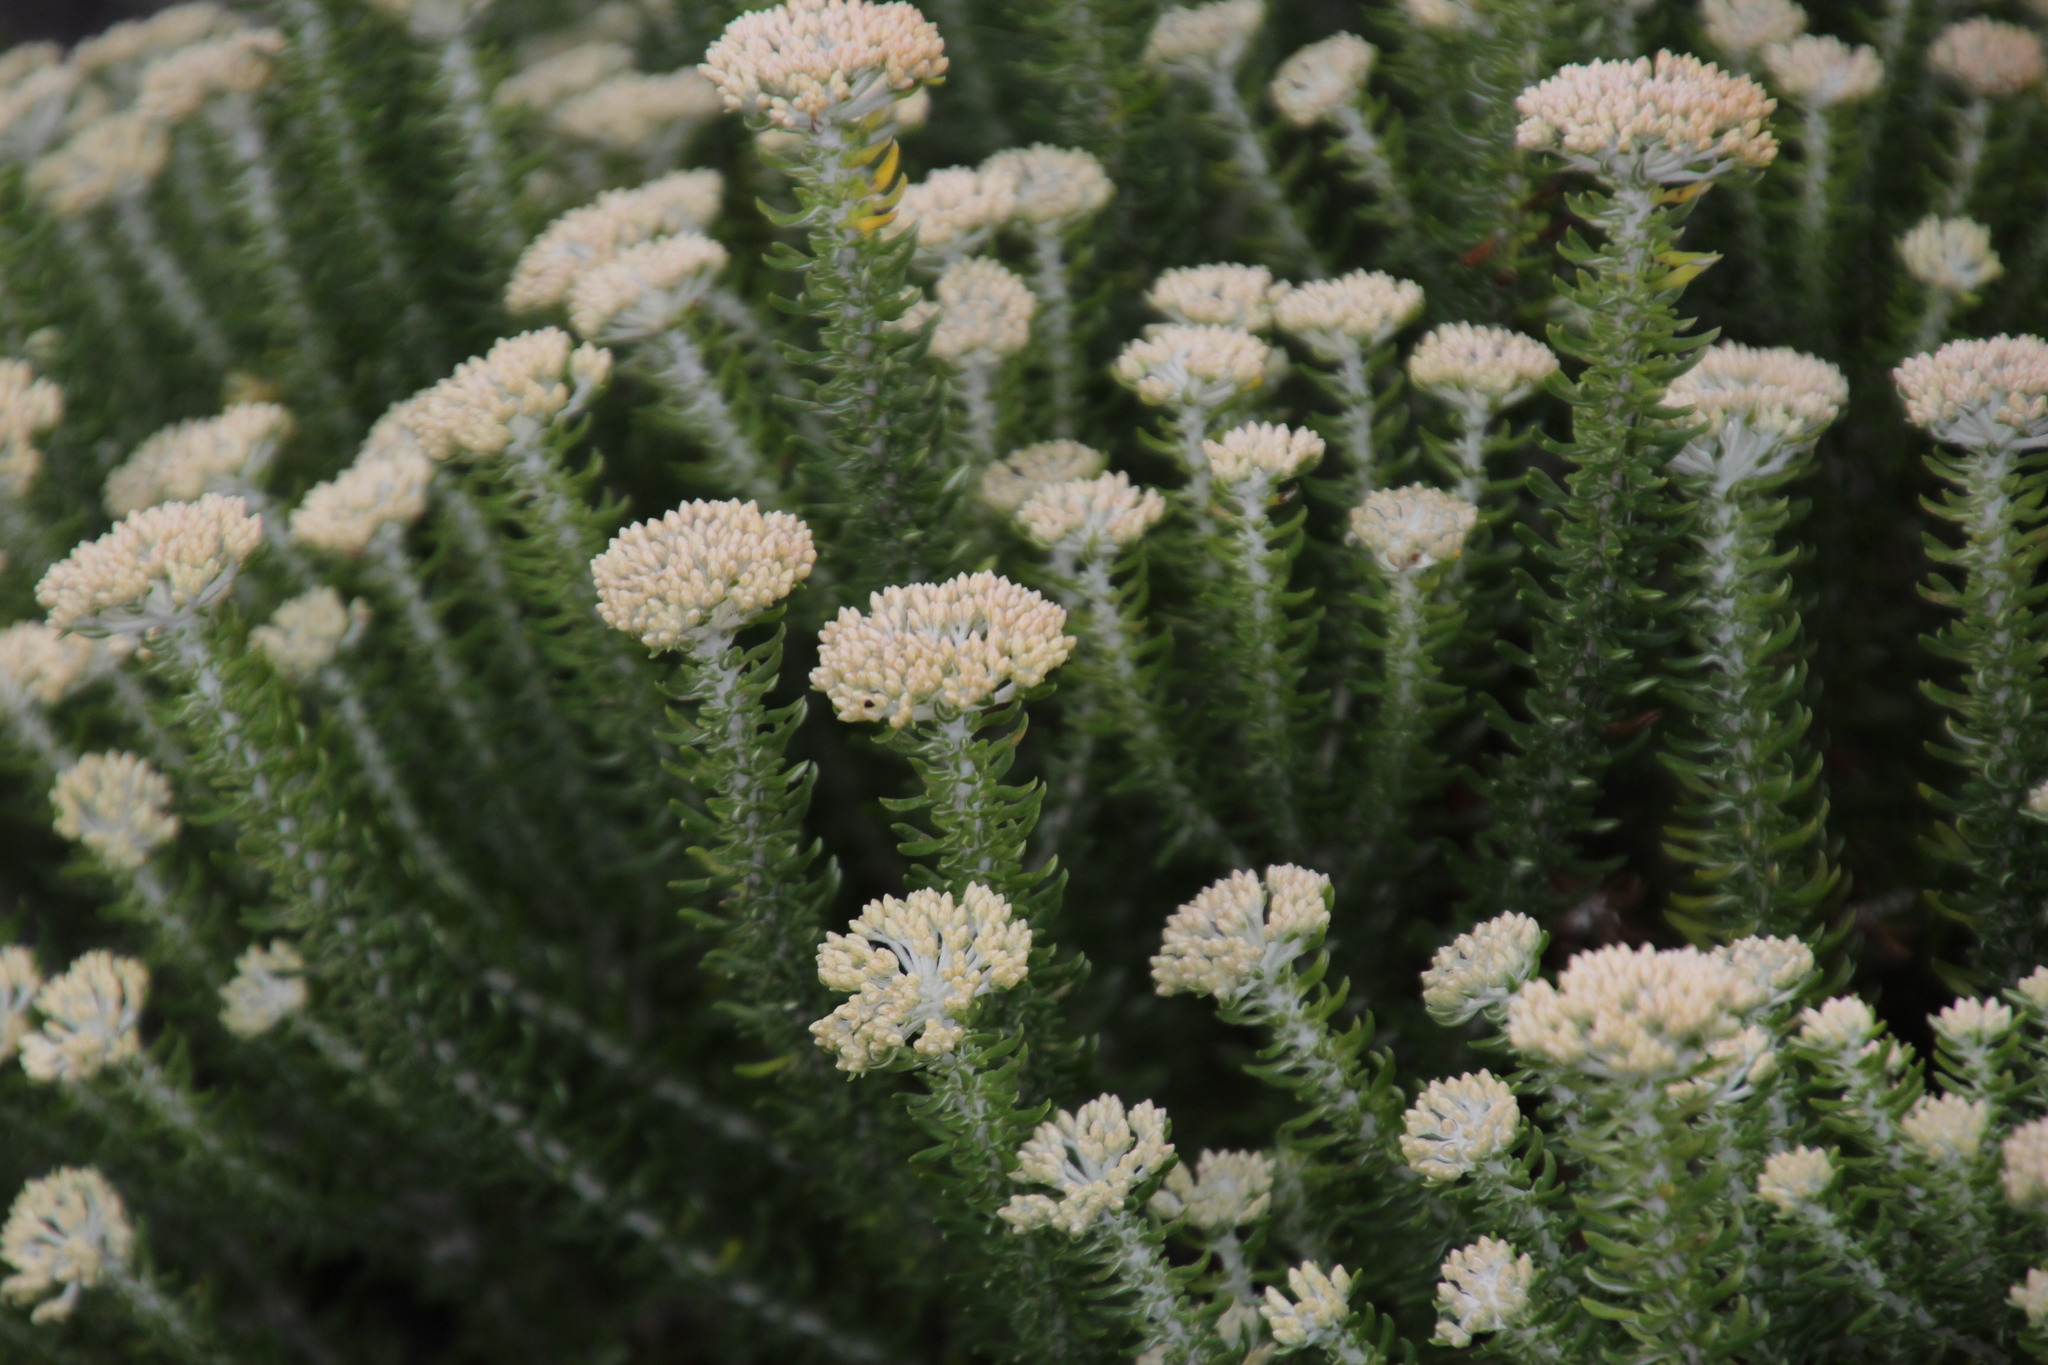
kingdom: Plantae
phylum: Tracheophyta
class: Magnoliopsida
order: Asterales
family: Asteraceae
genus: Metalasia
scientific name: Metalasia muricata
